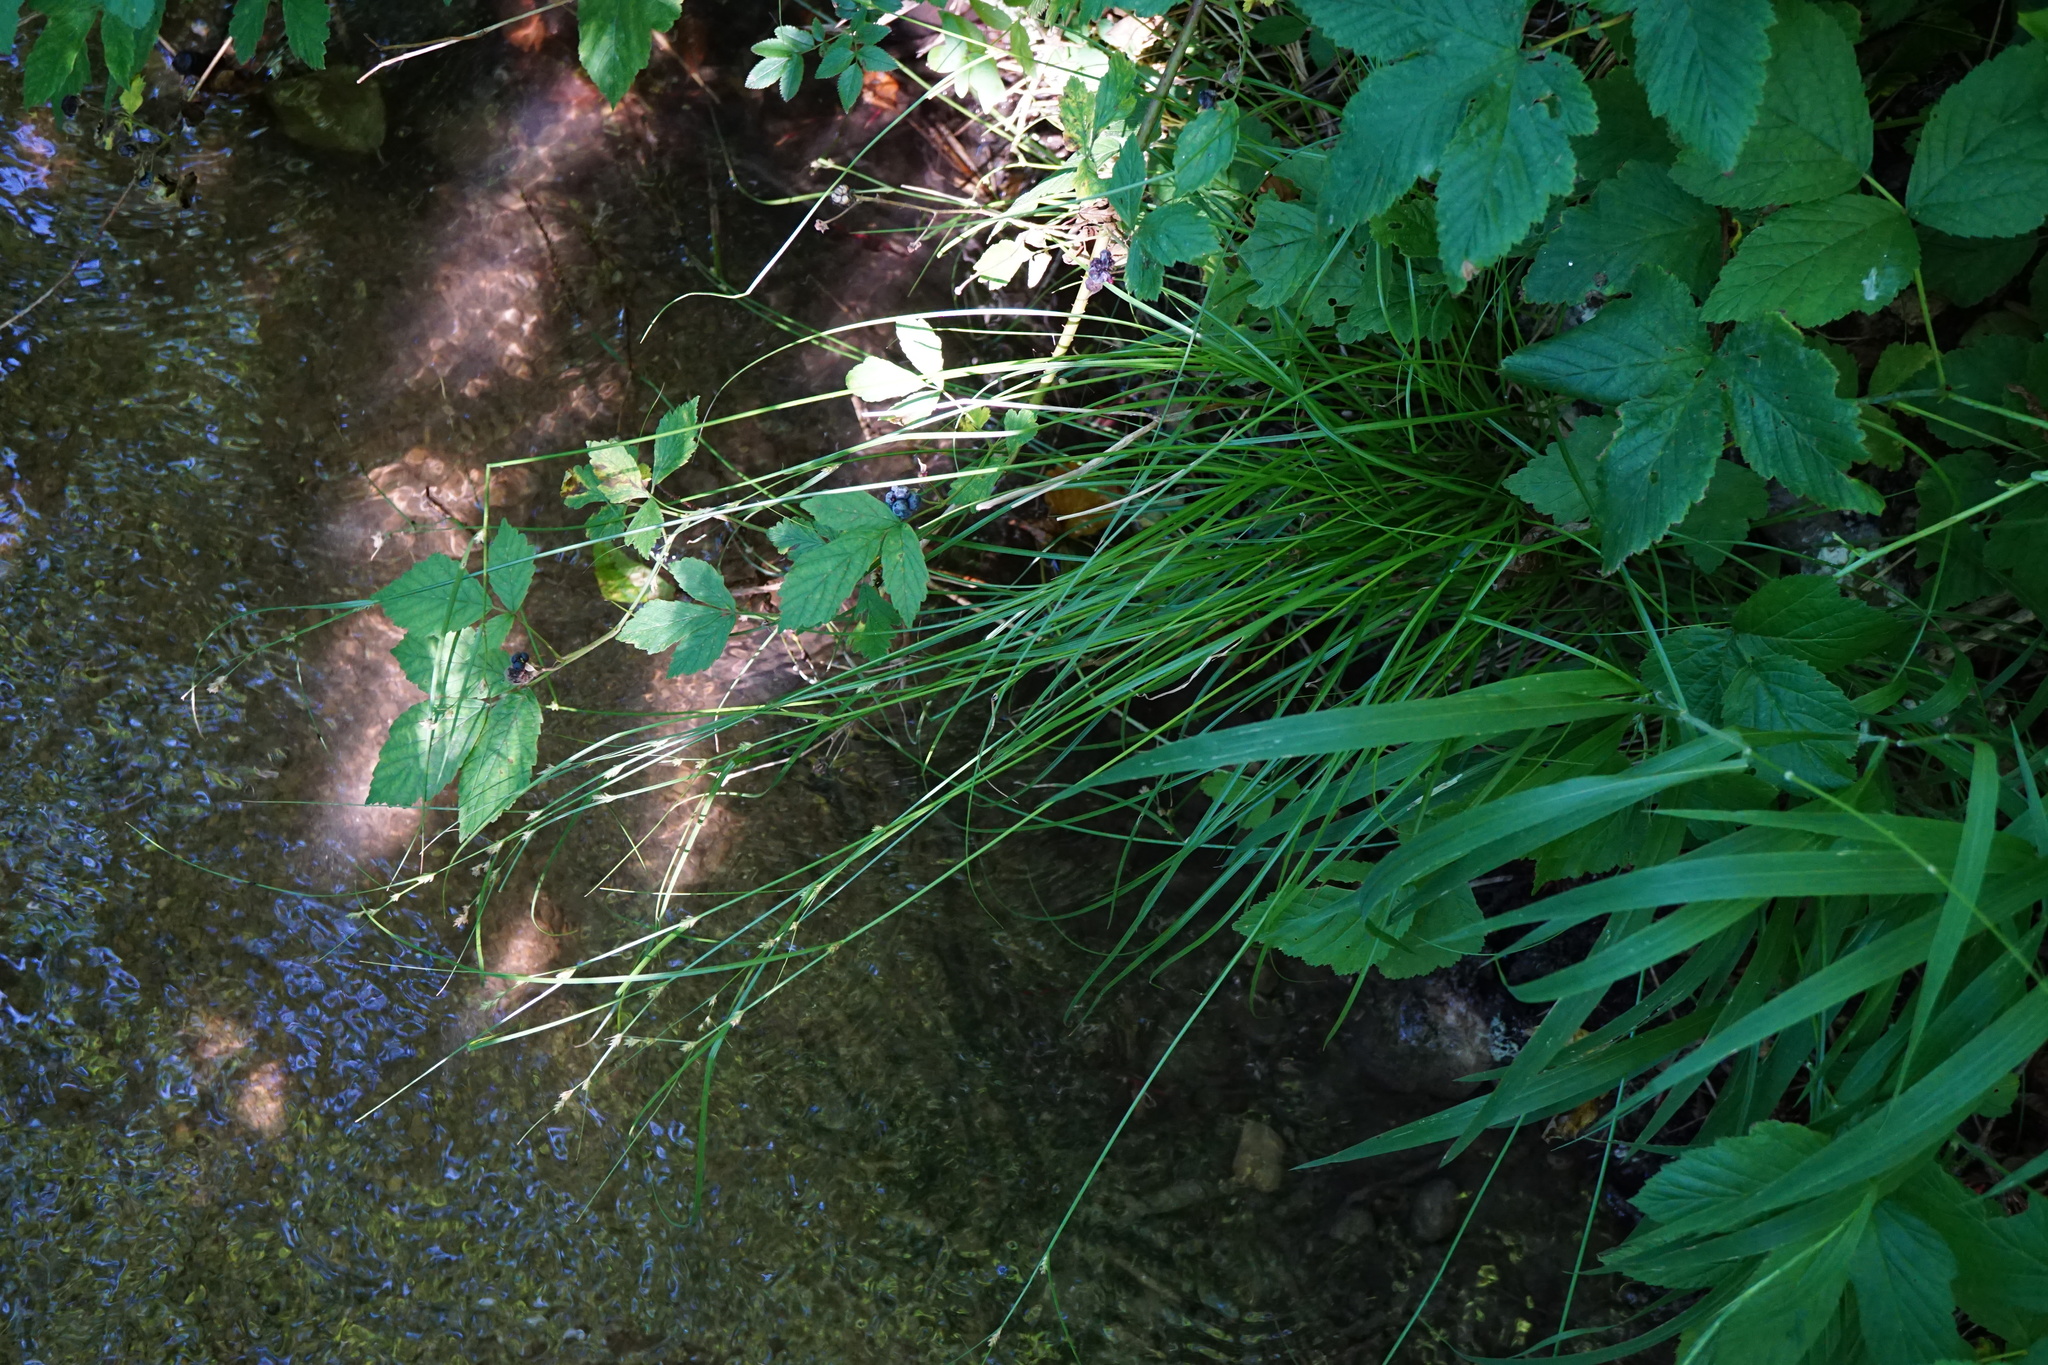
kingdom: Plantae
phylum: Tracheophyta
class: Liliopsida
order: Poales
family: Cyperaceae
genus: Carex
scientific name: Carex remota
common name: Remote sedge
